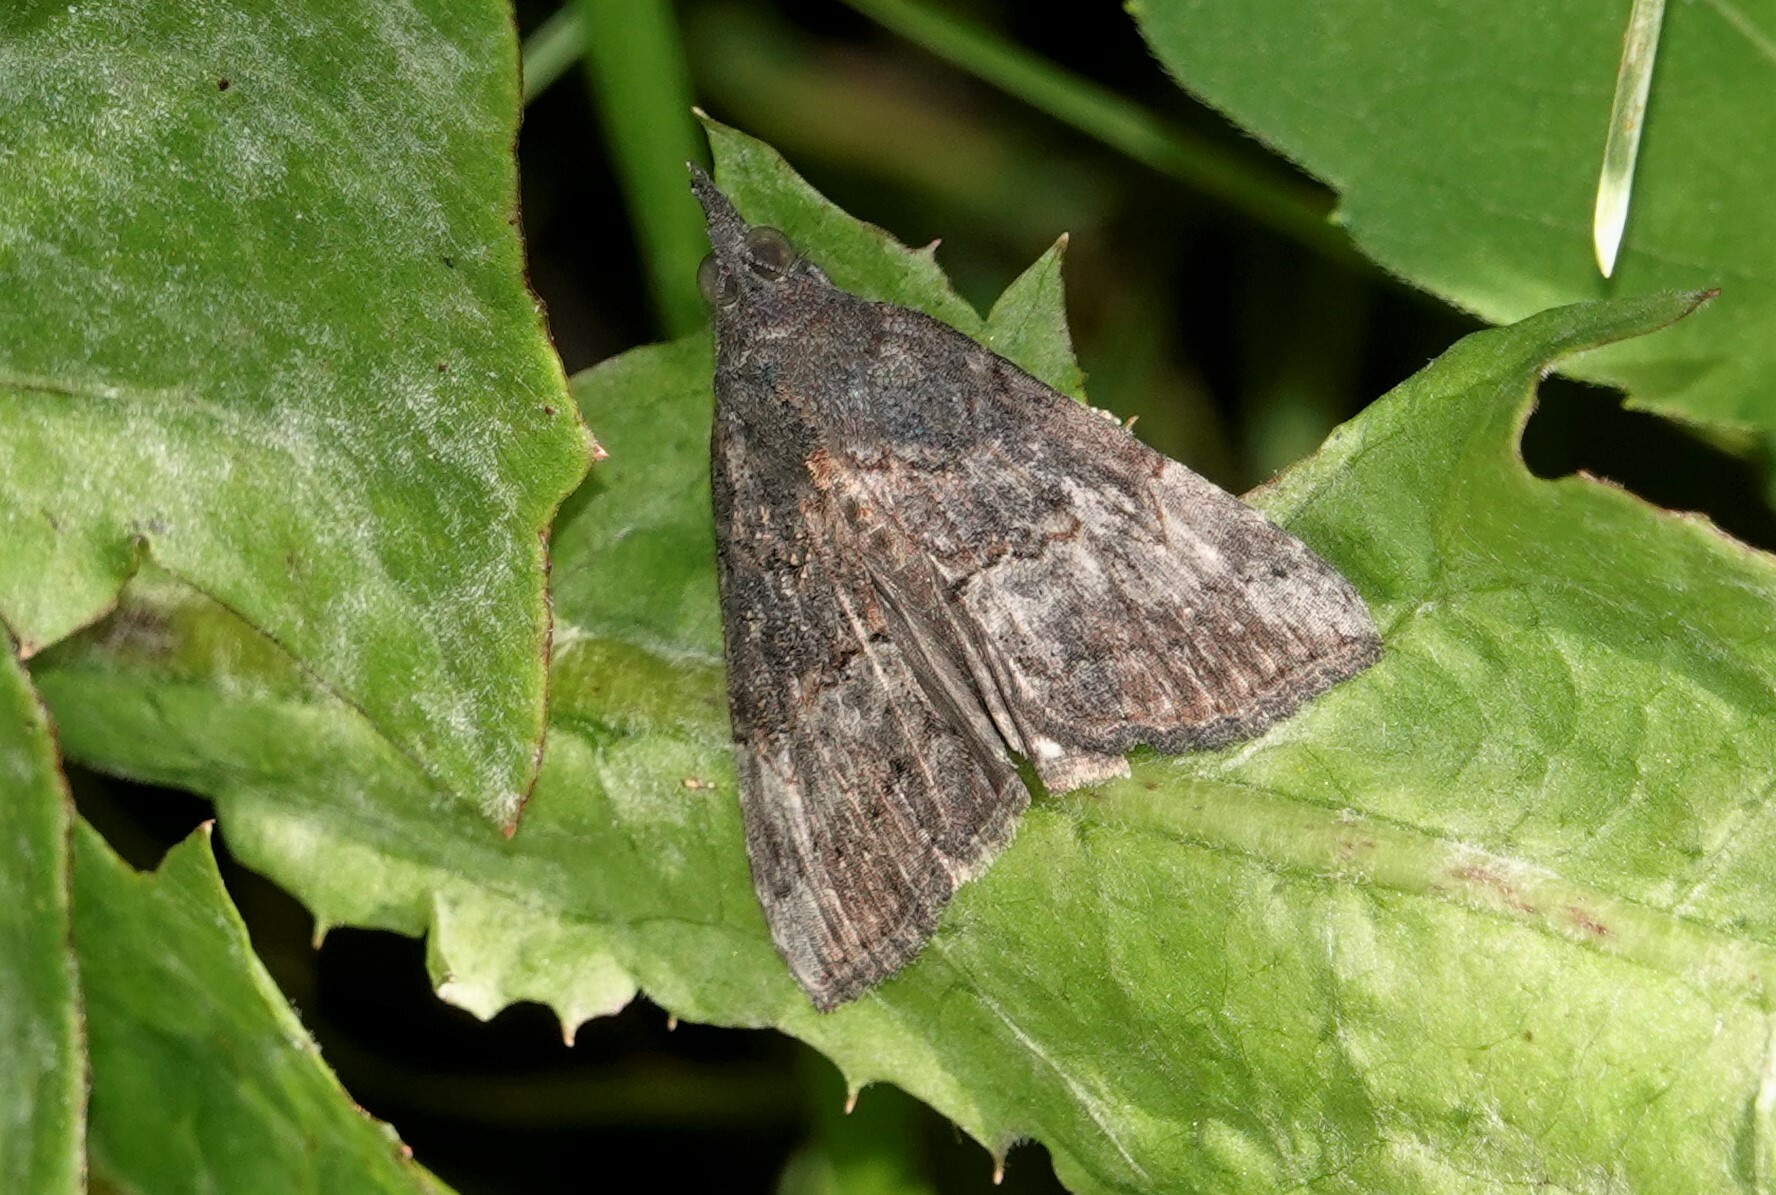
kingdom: Animalia
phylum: Arthropoda
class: Insecta
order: Lepidoptera
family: Erebidae
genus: Hypena
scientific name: Hypena scabra
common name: Green cloverworm
